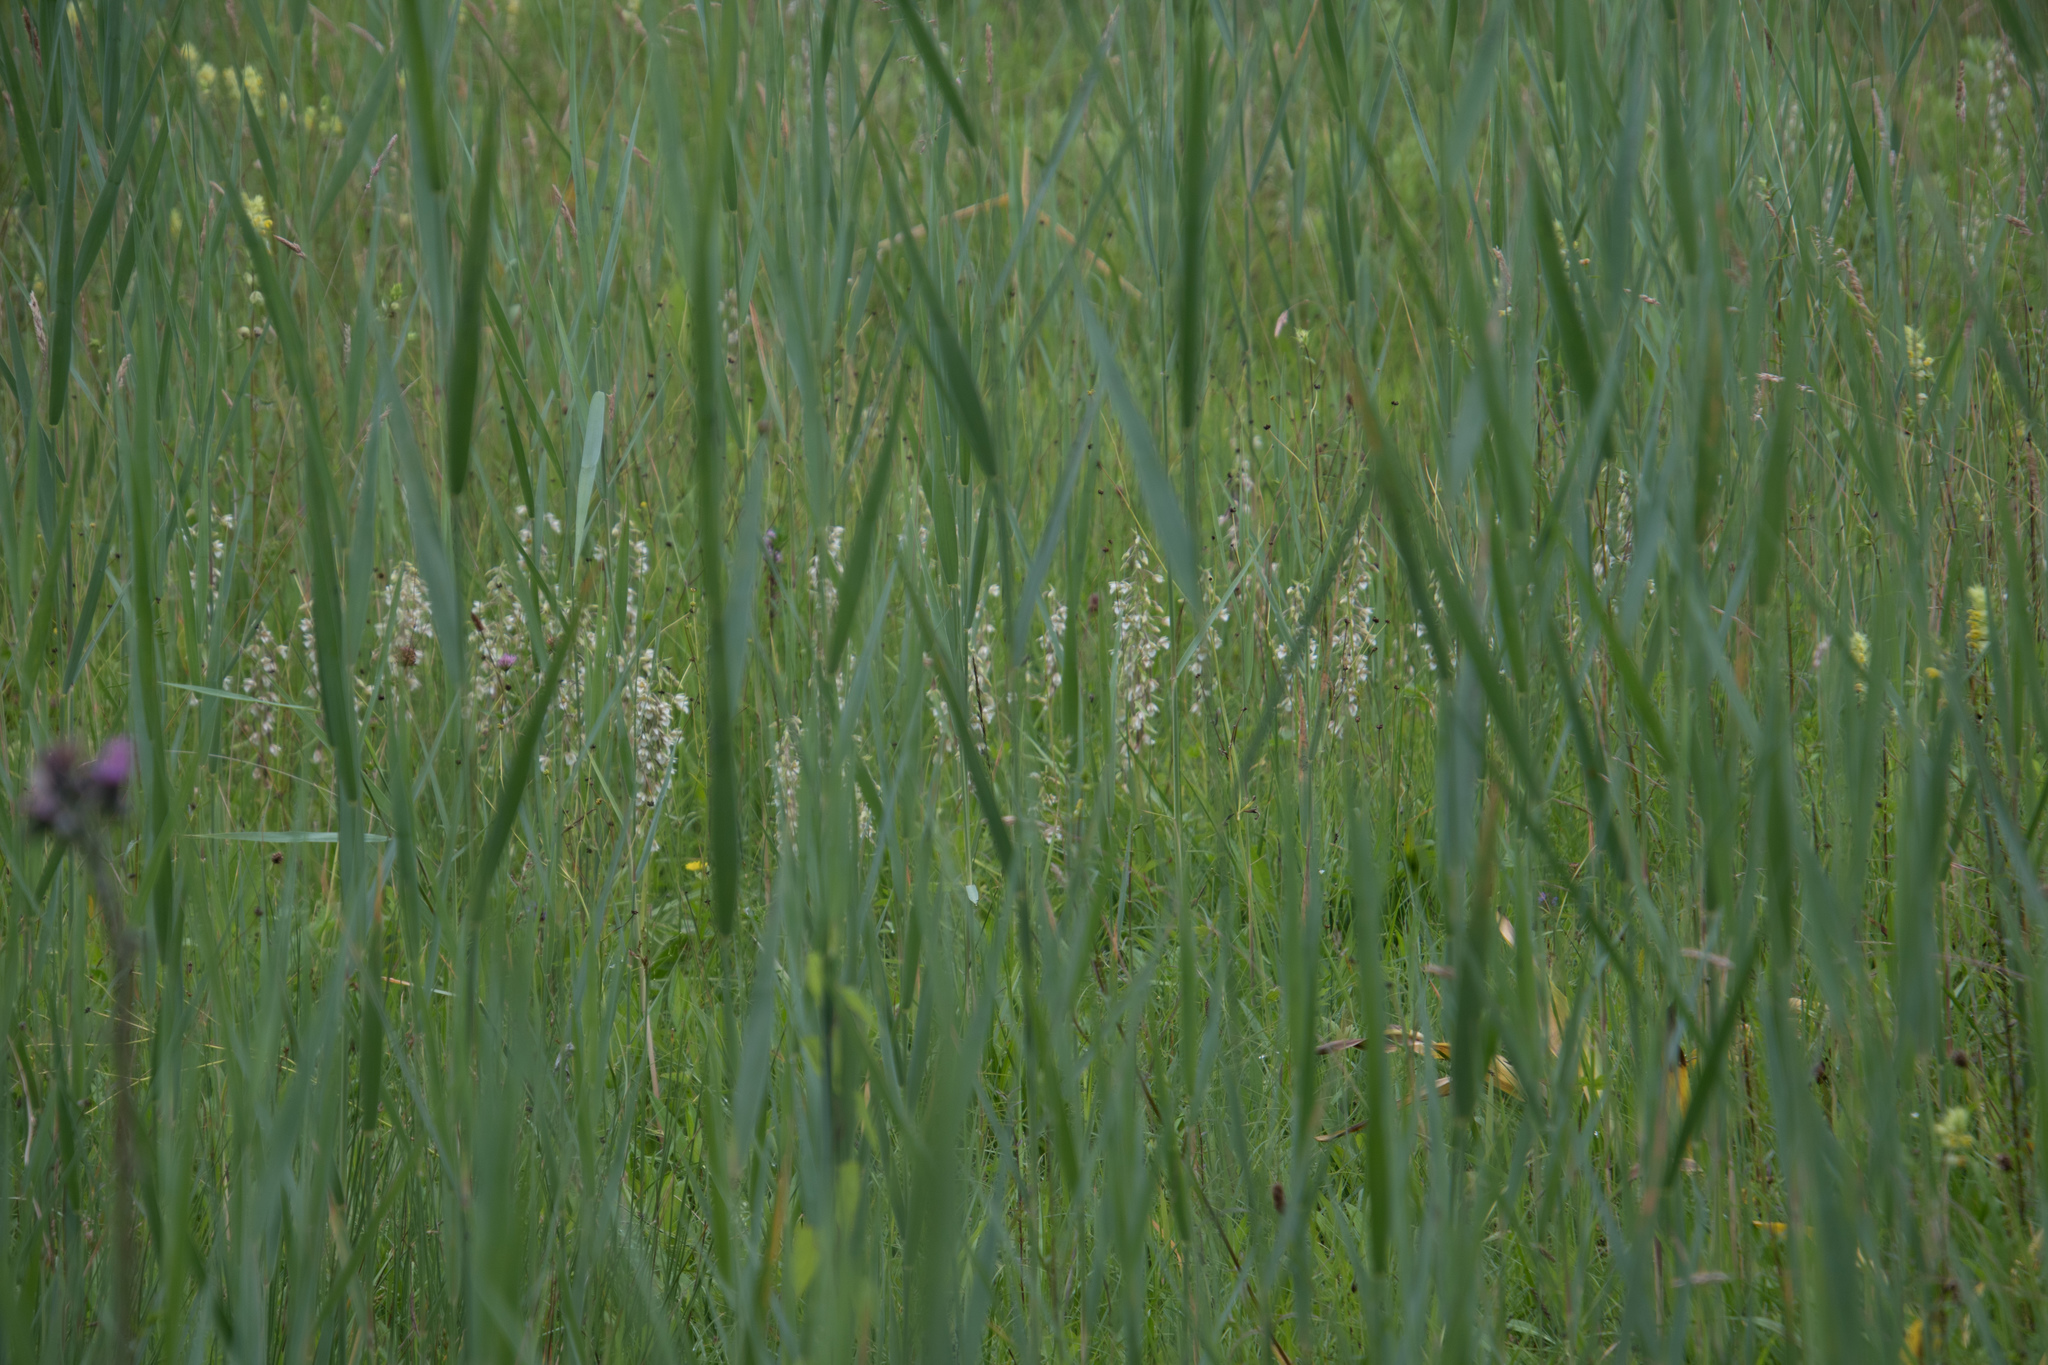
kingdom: Plantae
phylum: Tracheophyta
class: Liliopsida
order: Asparagales
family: Orchidaceae
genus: Epipactis
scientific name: Epipactis palustris
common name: Marsh helleborine
